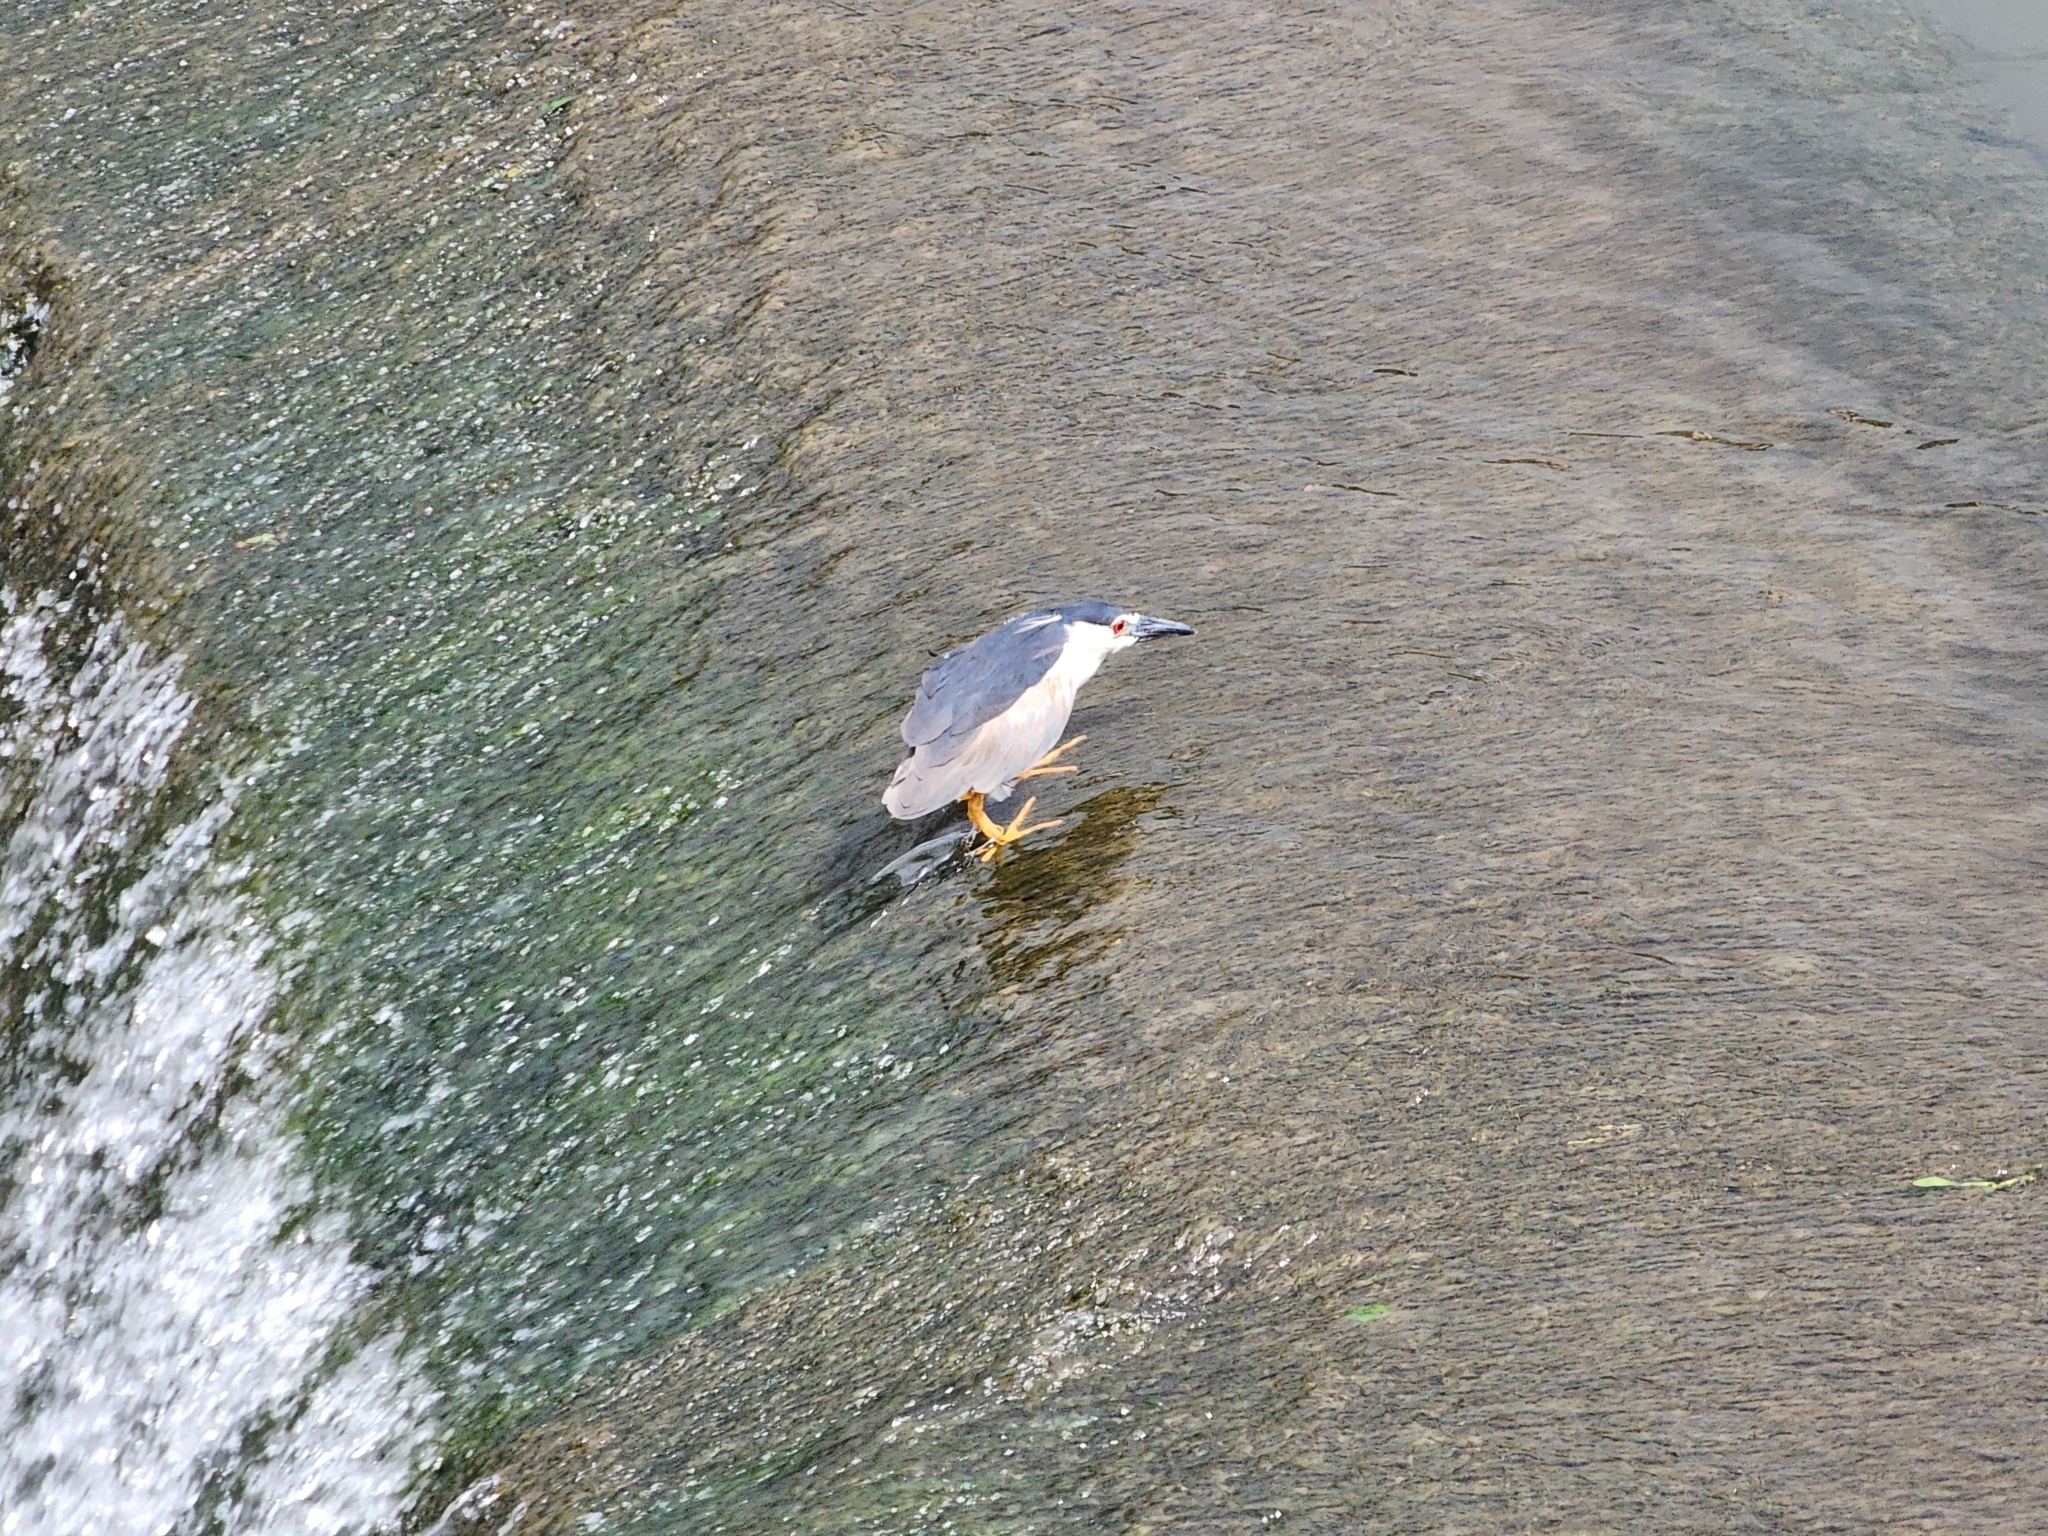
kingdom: Animalia
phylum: Chordata
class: Aves
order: Pelecaniformes
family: Ardeidae
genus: Nycticorax
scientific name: Nycticorax nycticorax
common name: Black-crowned night heron
